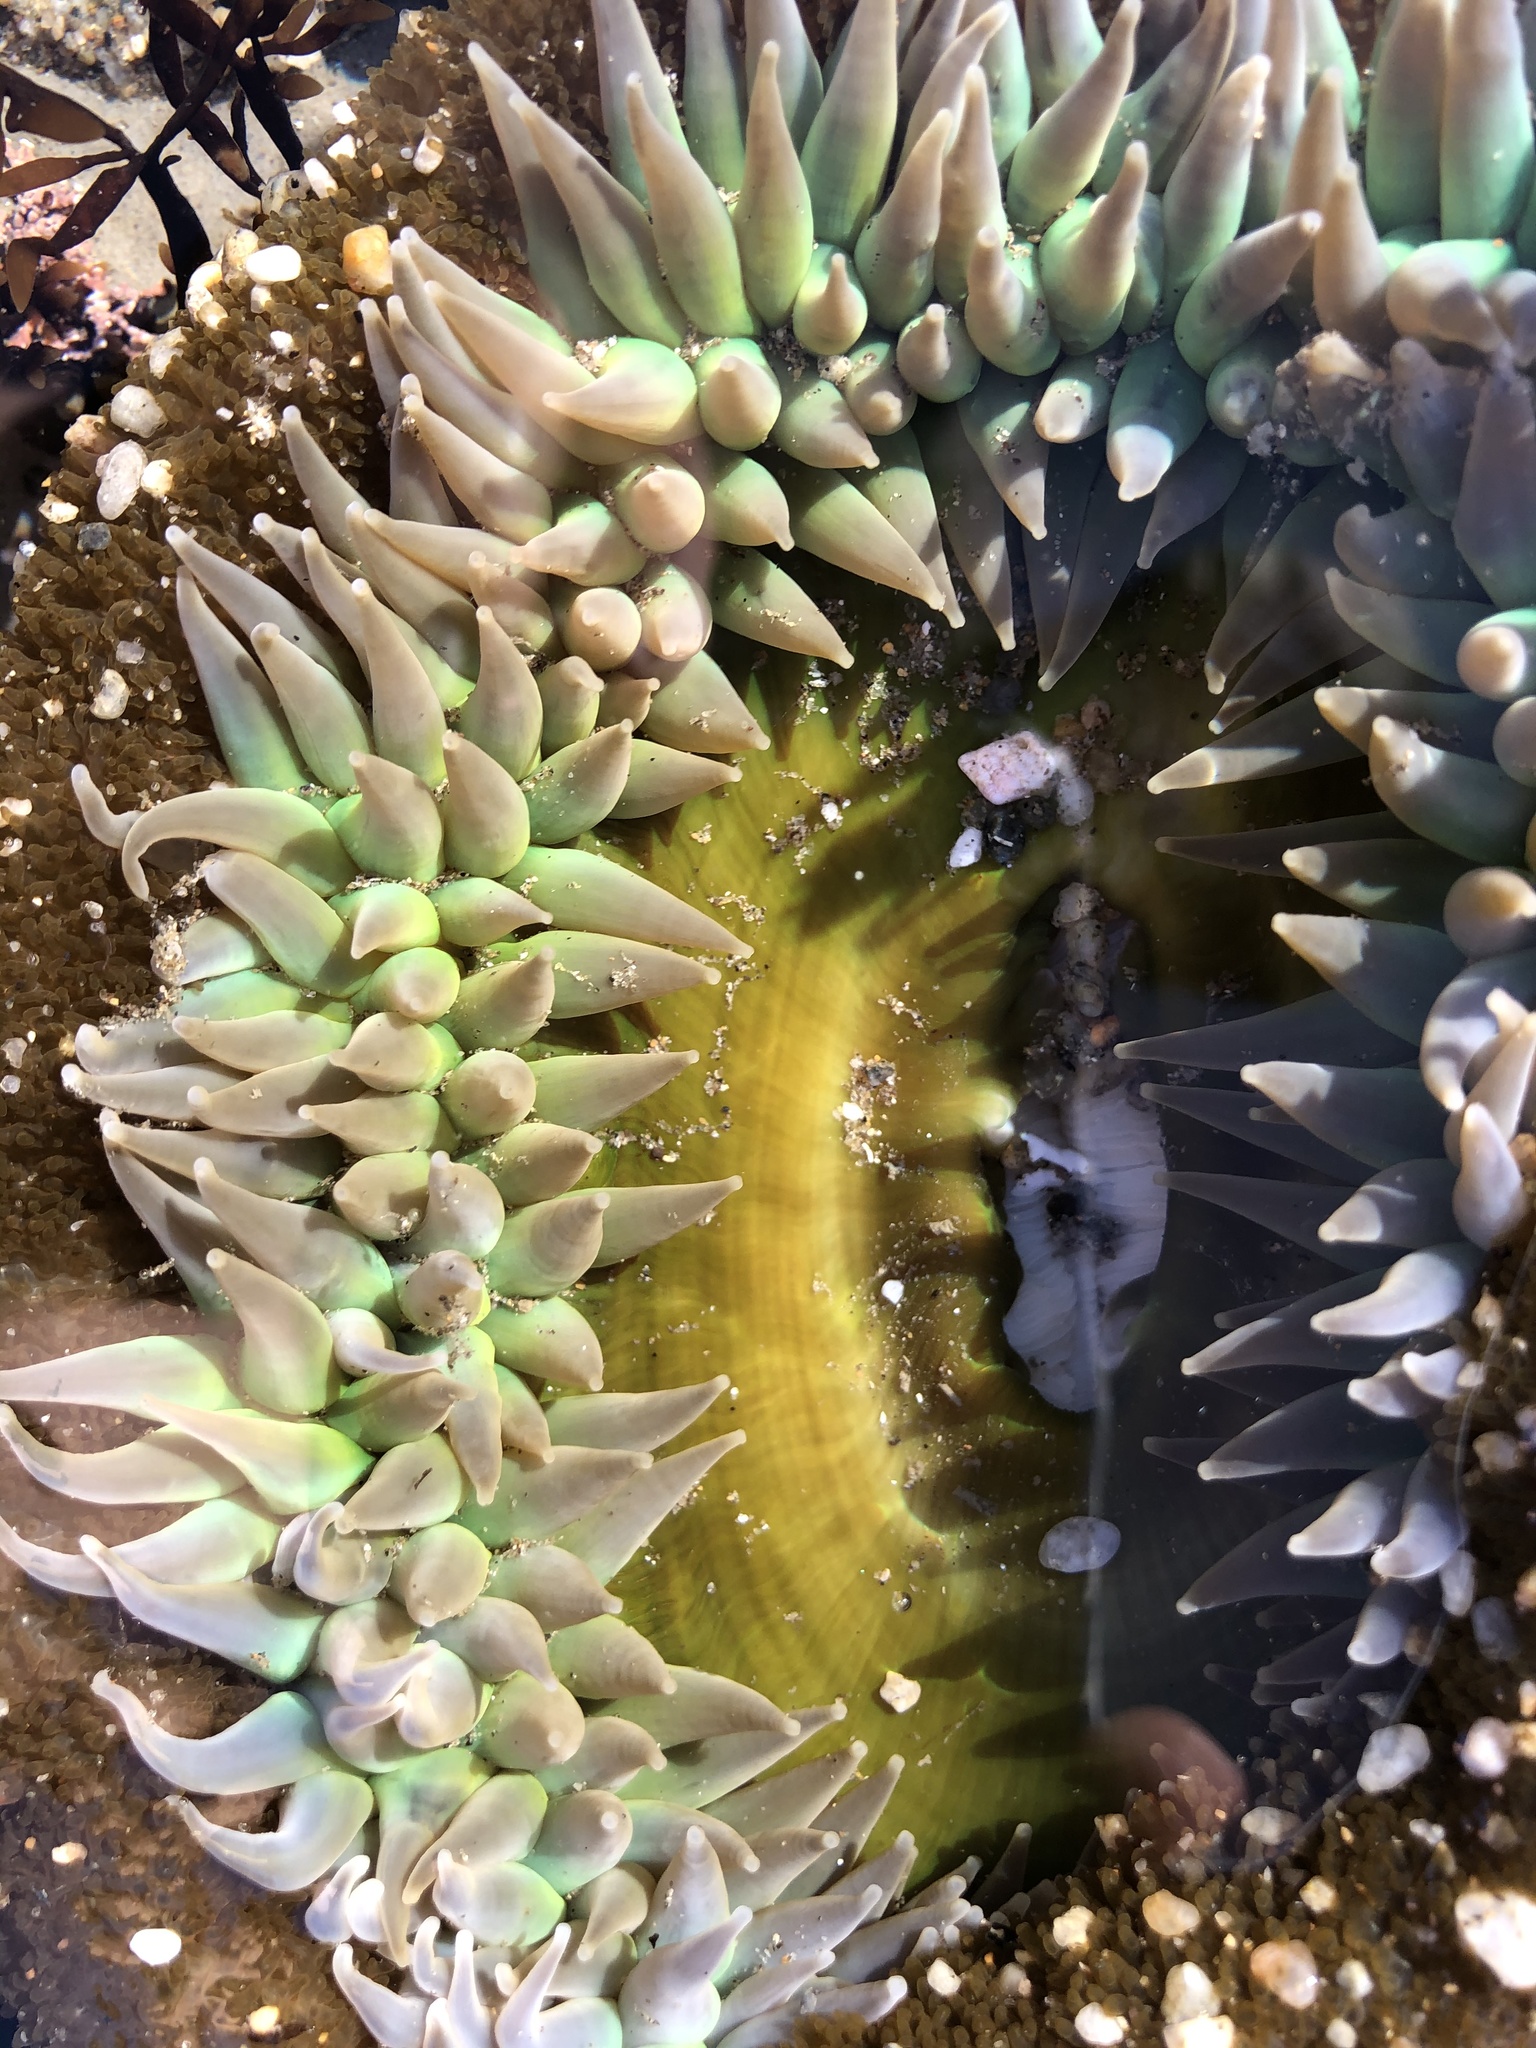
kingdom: Animalia
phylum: Cnidaria
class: Anthozoa
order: Actiniaria
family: Actiniidae
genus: Anthopleura
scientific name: Anthopleura xanthogrammica
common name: Giant green anemone
